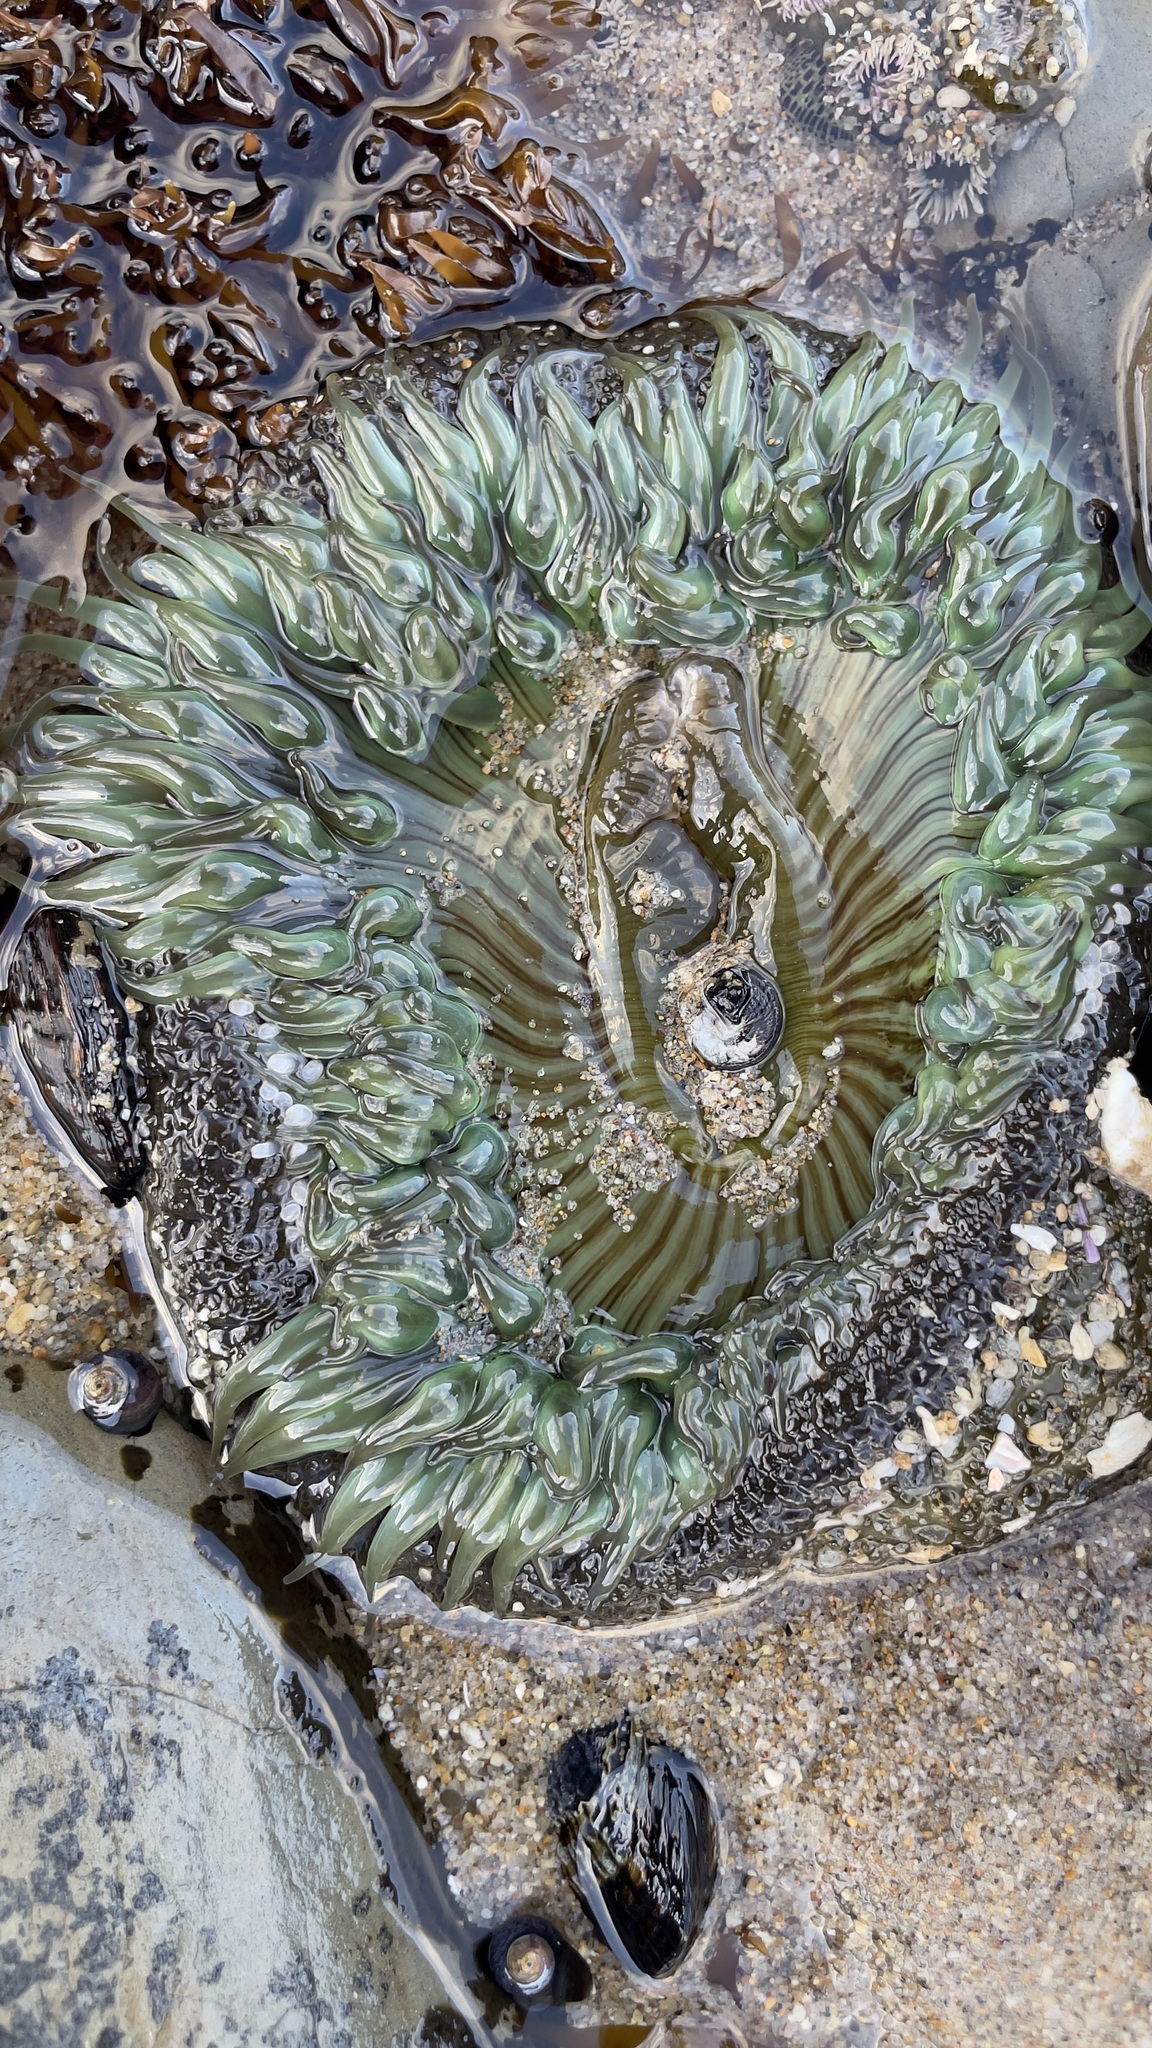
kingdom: Animalia
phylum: Cnidaria
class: Anthozoa
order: Actiniaria
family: Actiniidae
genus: Anthopleura
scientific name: Anthopleura sola
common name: Sun anemone
